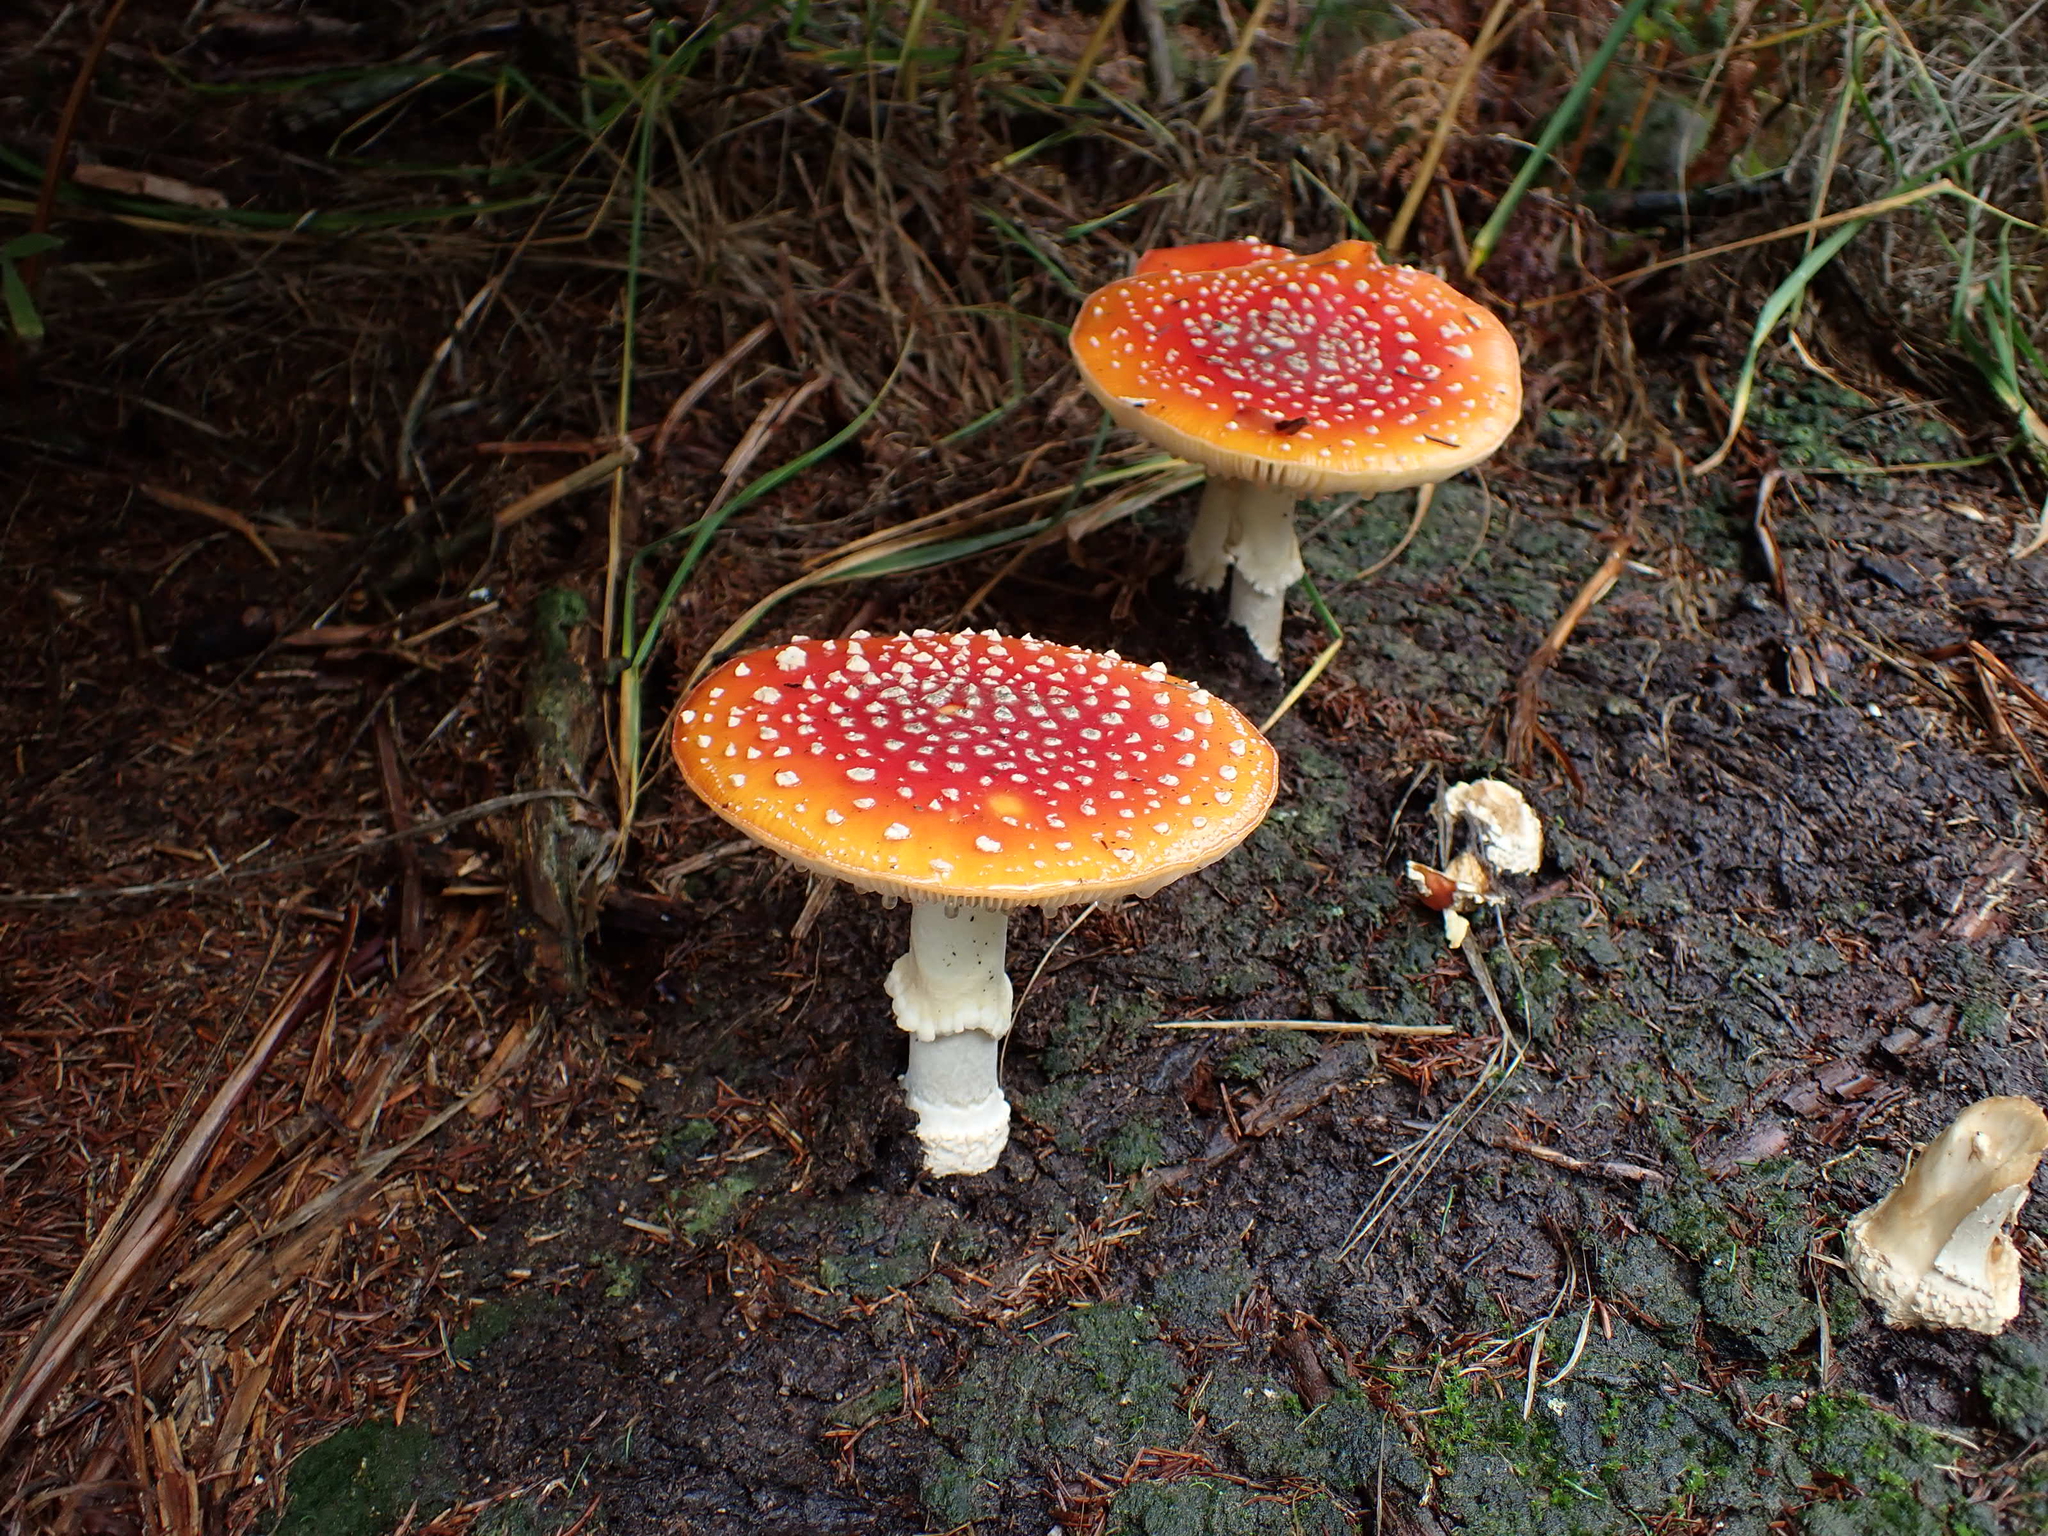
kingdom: Fungi
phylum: Basidiomycota
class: Agaricomycetes
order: Agaricales
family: Amanitaceae
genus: Amanita
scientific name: Amanita muscaria
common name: Fly agaric
